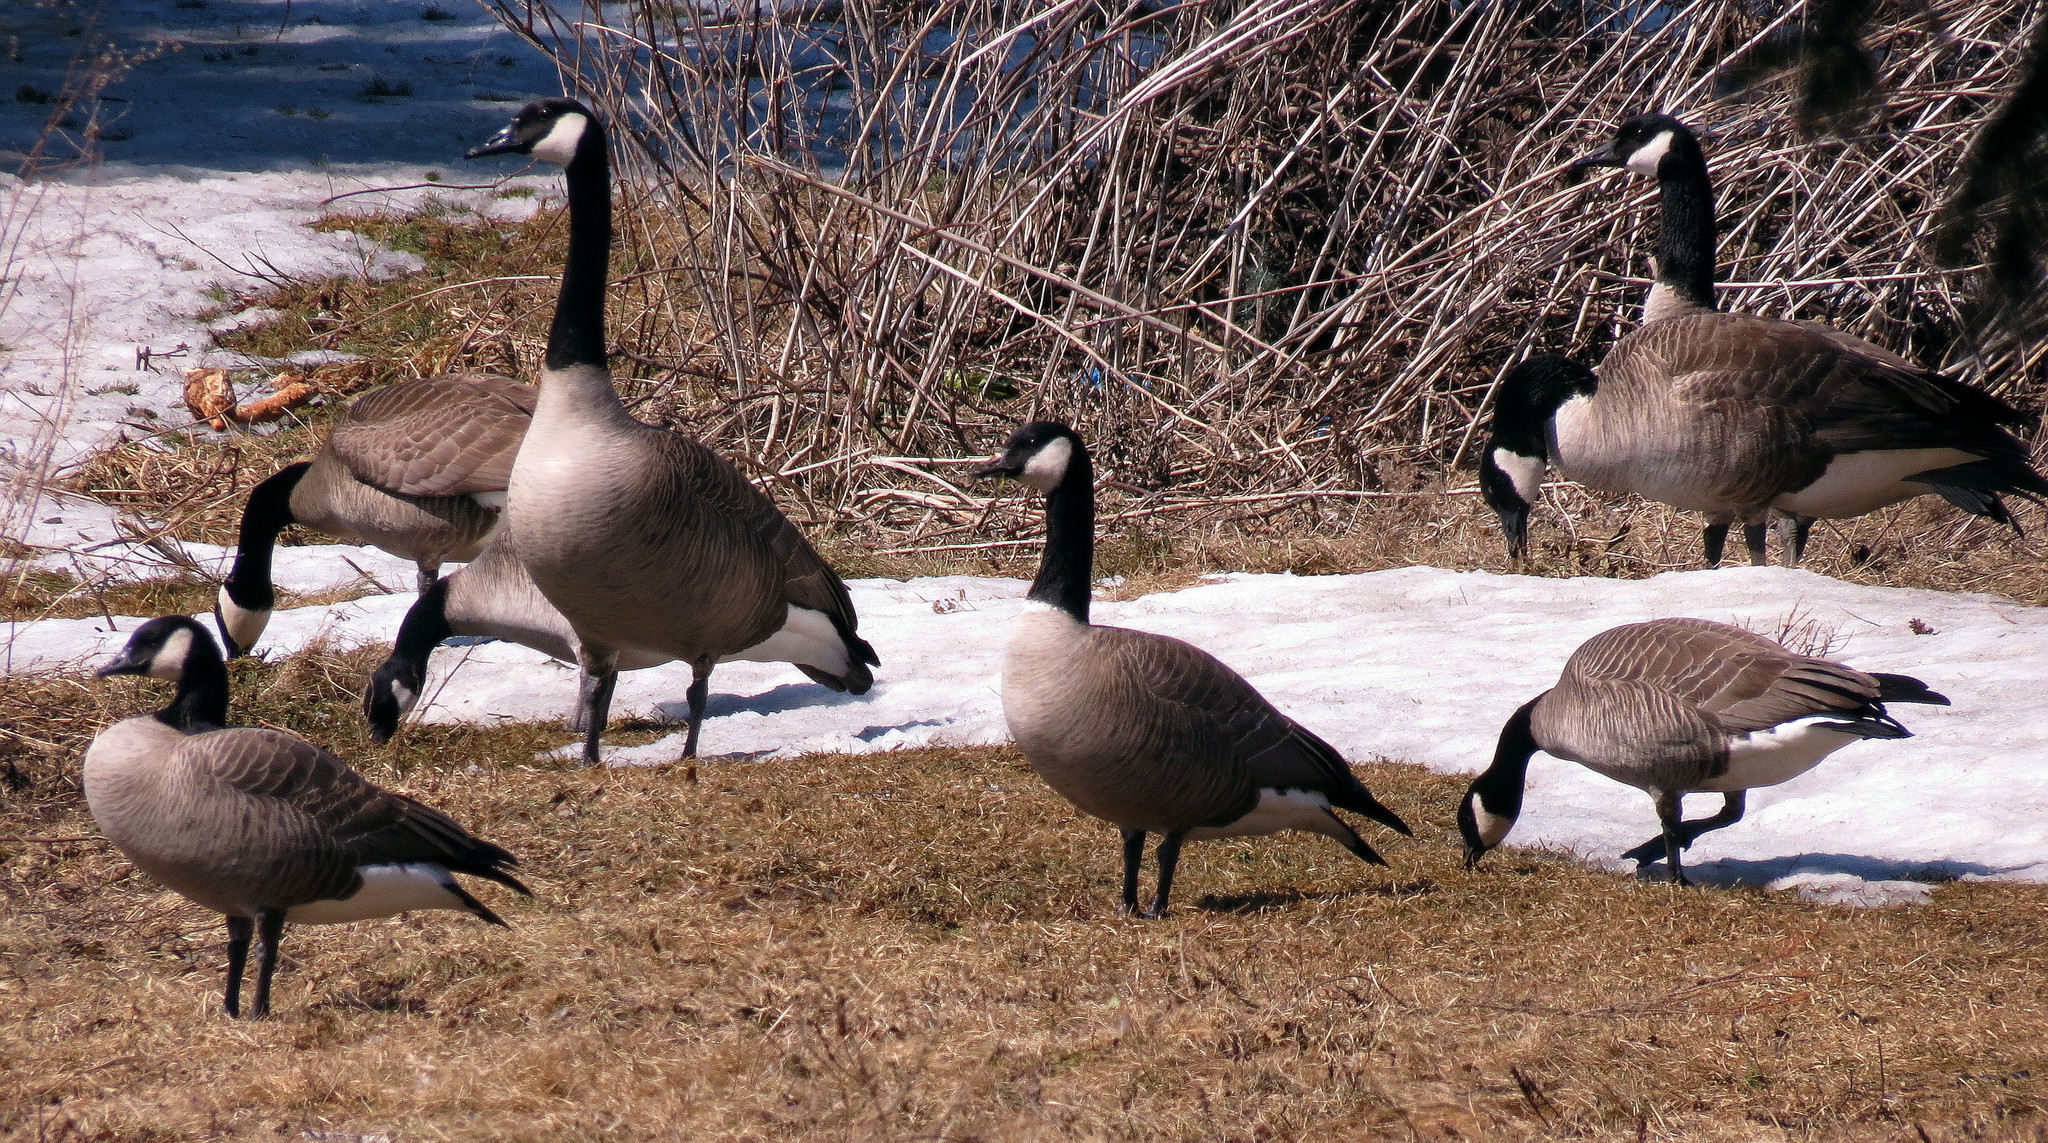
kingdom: Animalia
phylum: Chordata
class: Aves
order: Anseriformes
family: Anatidae
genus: Branta
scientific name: Branta canadensis
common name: Canada goose
